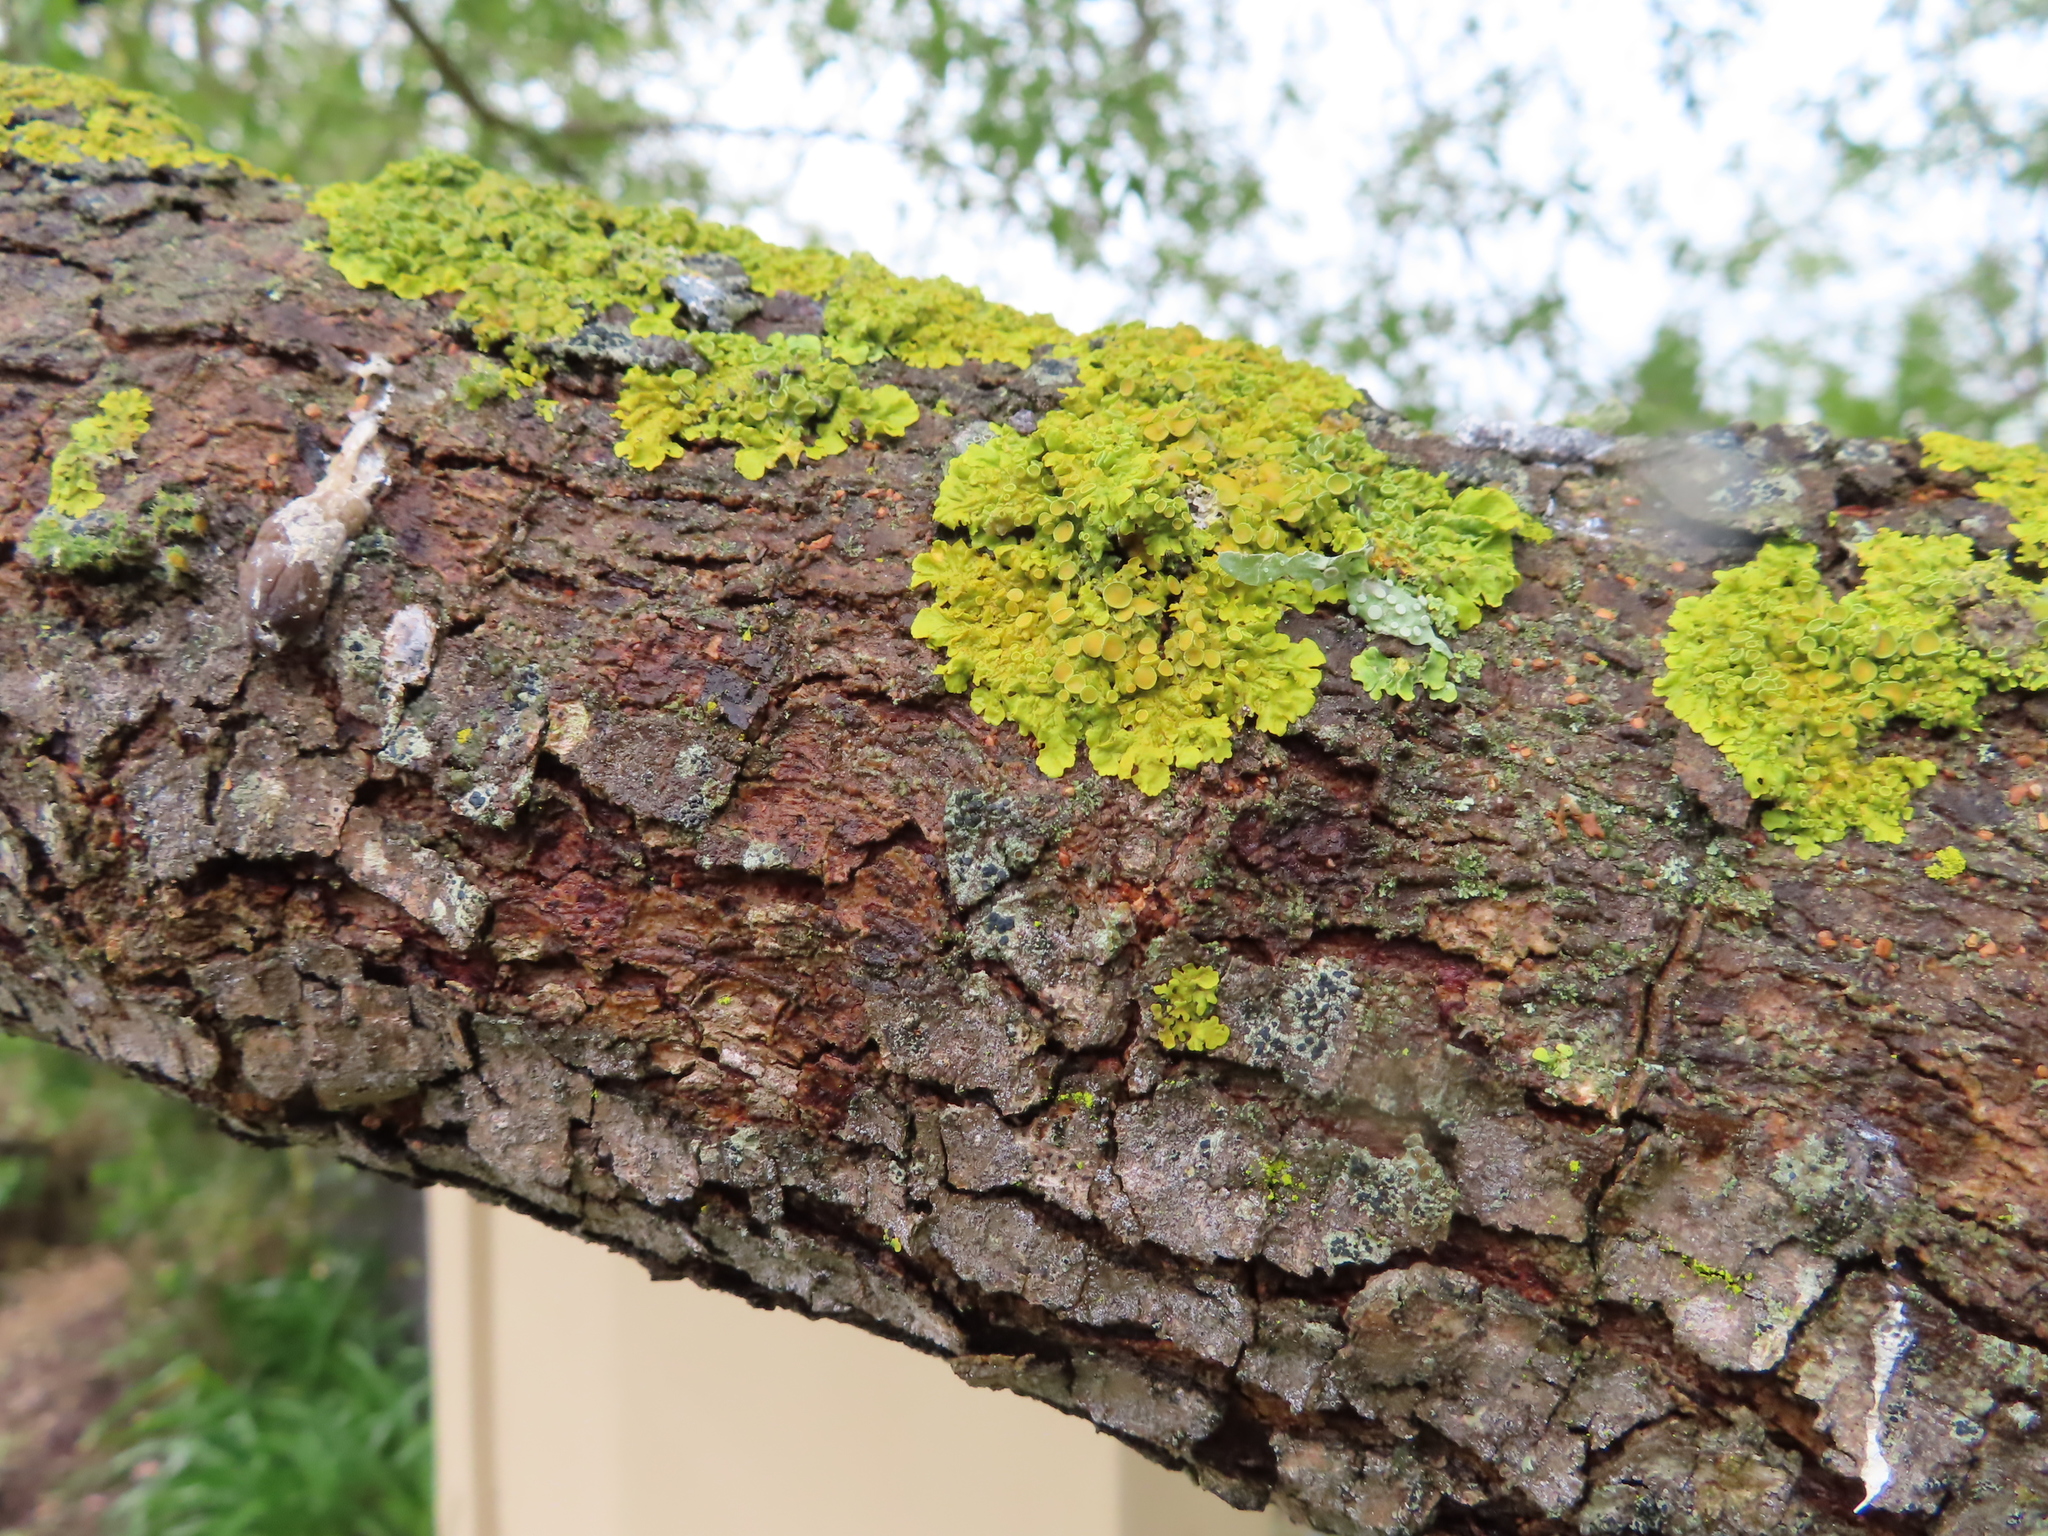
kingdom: Fungi
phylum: Ascomycota
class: Lecanoromycetes
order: Teloschistales
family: Teloschistaceae
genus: Xanthoria
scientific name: Xanthoria parietina
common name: Common orange lichen
